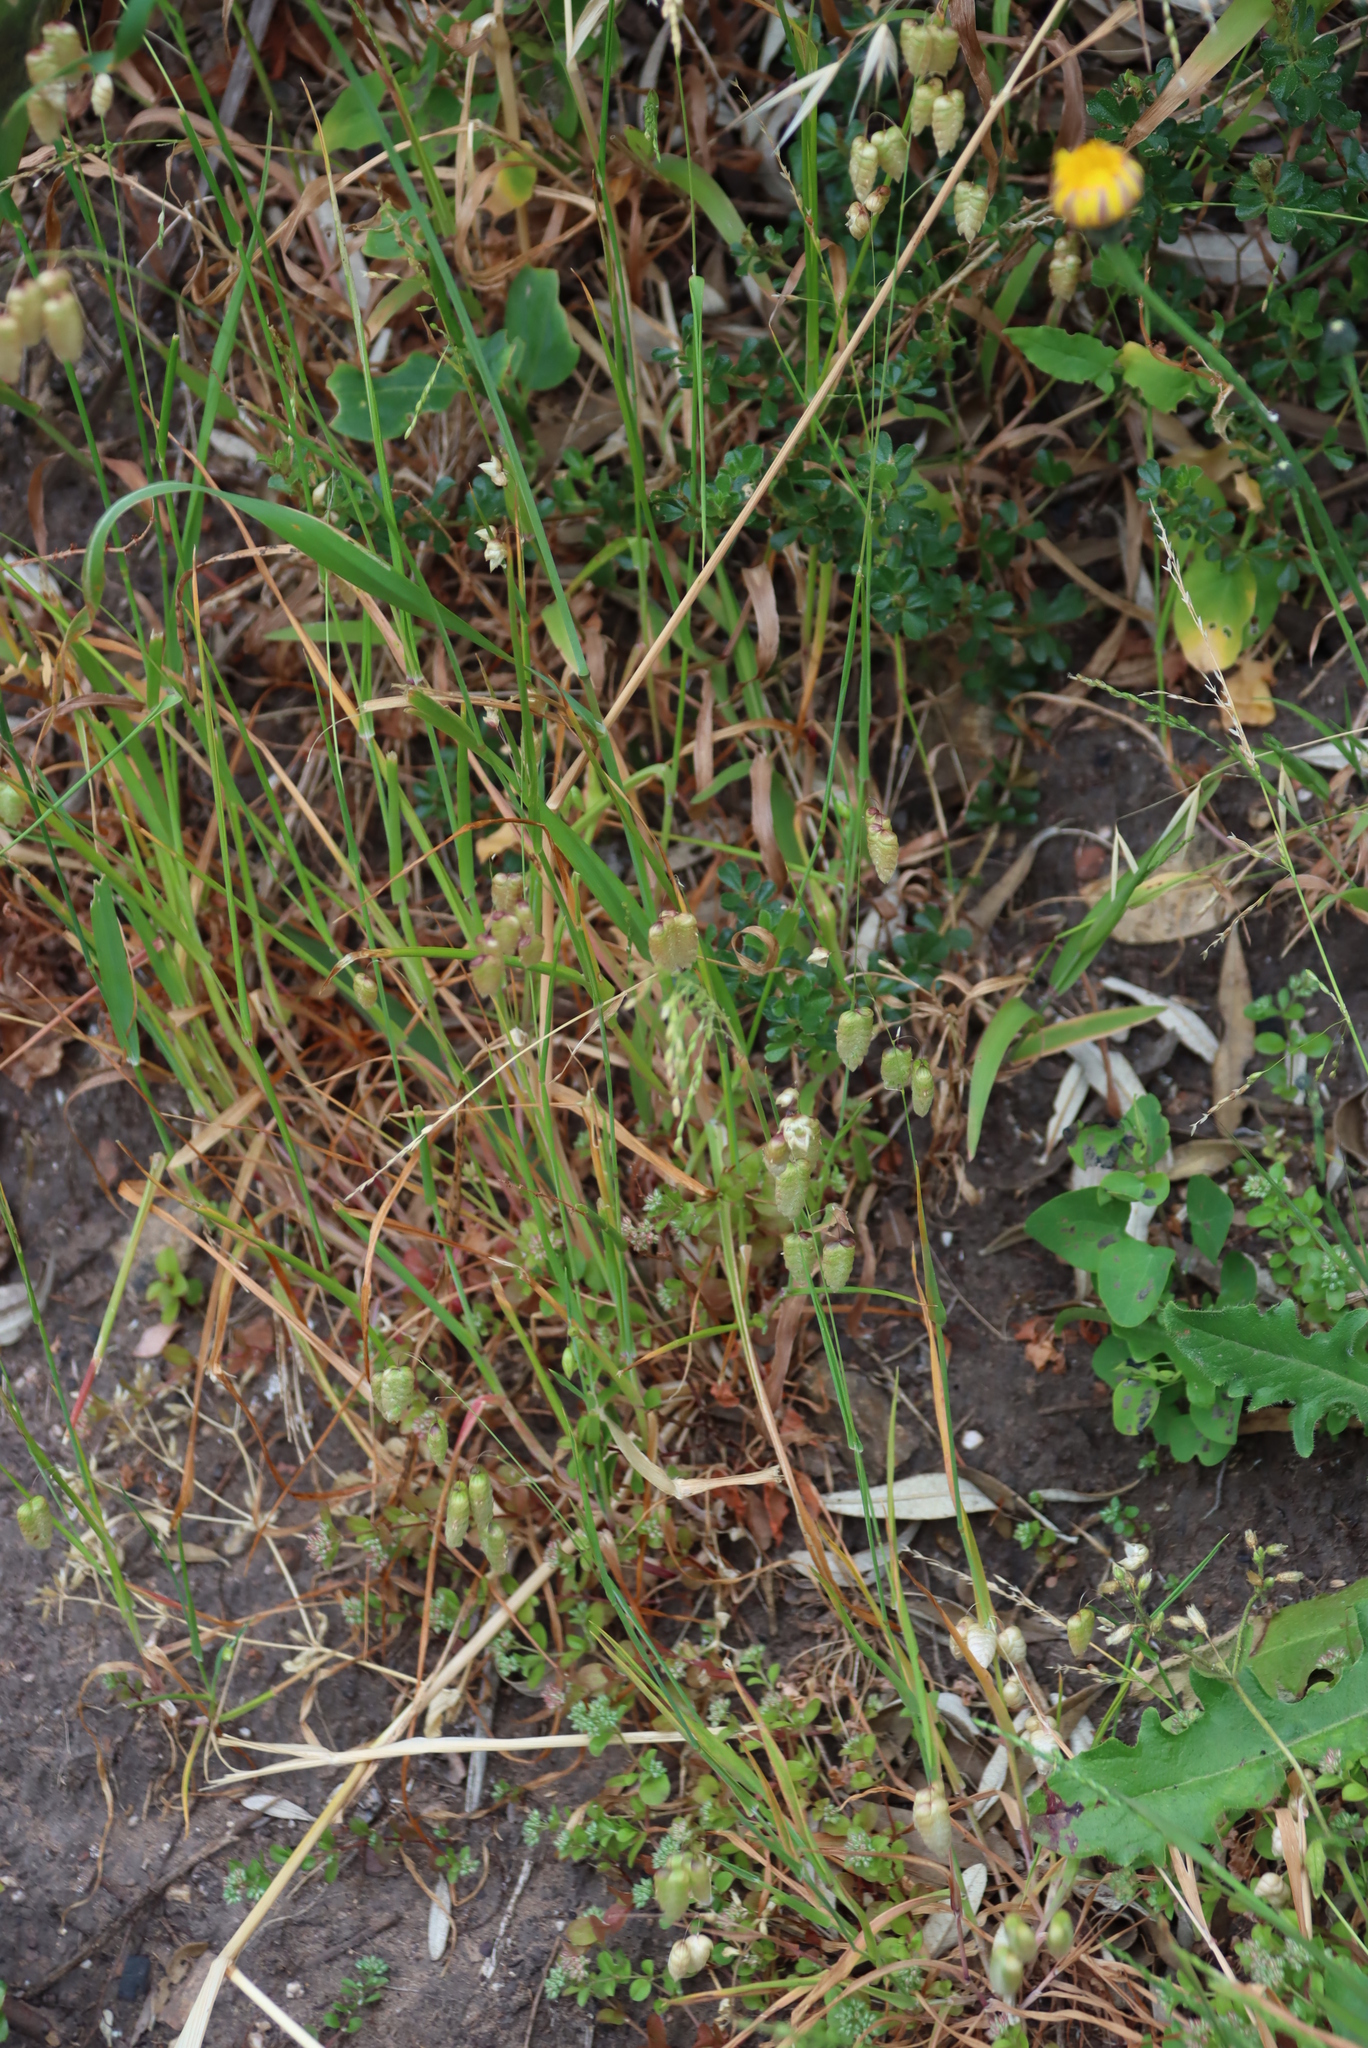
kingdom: Plantae
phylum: Tracheophyta
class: Liliopsida
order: Poales
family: Poaceae
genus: Briza
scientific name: Briza maxima
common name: Big quakinggrass
